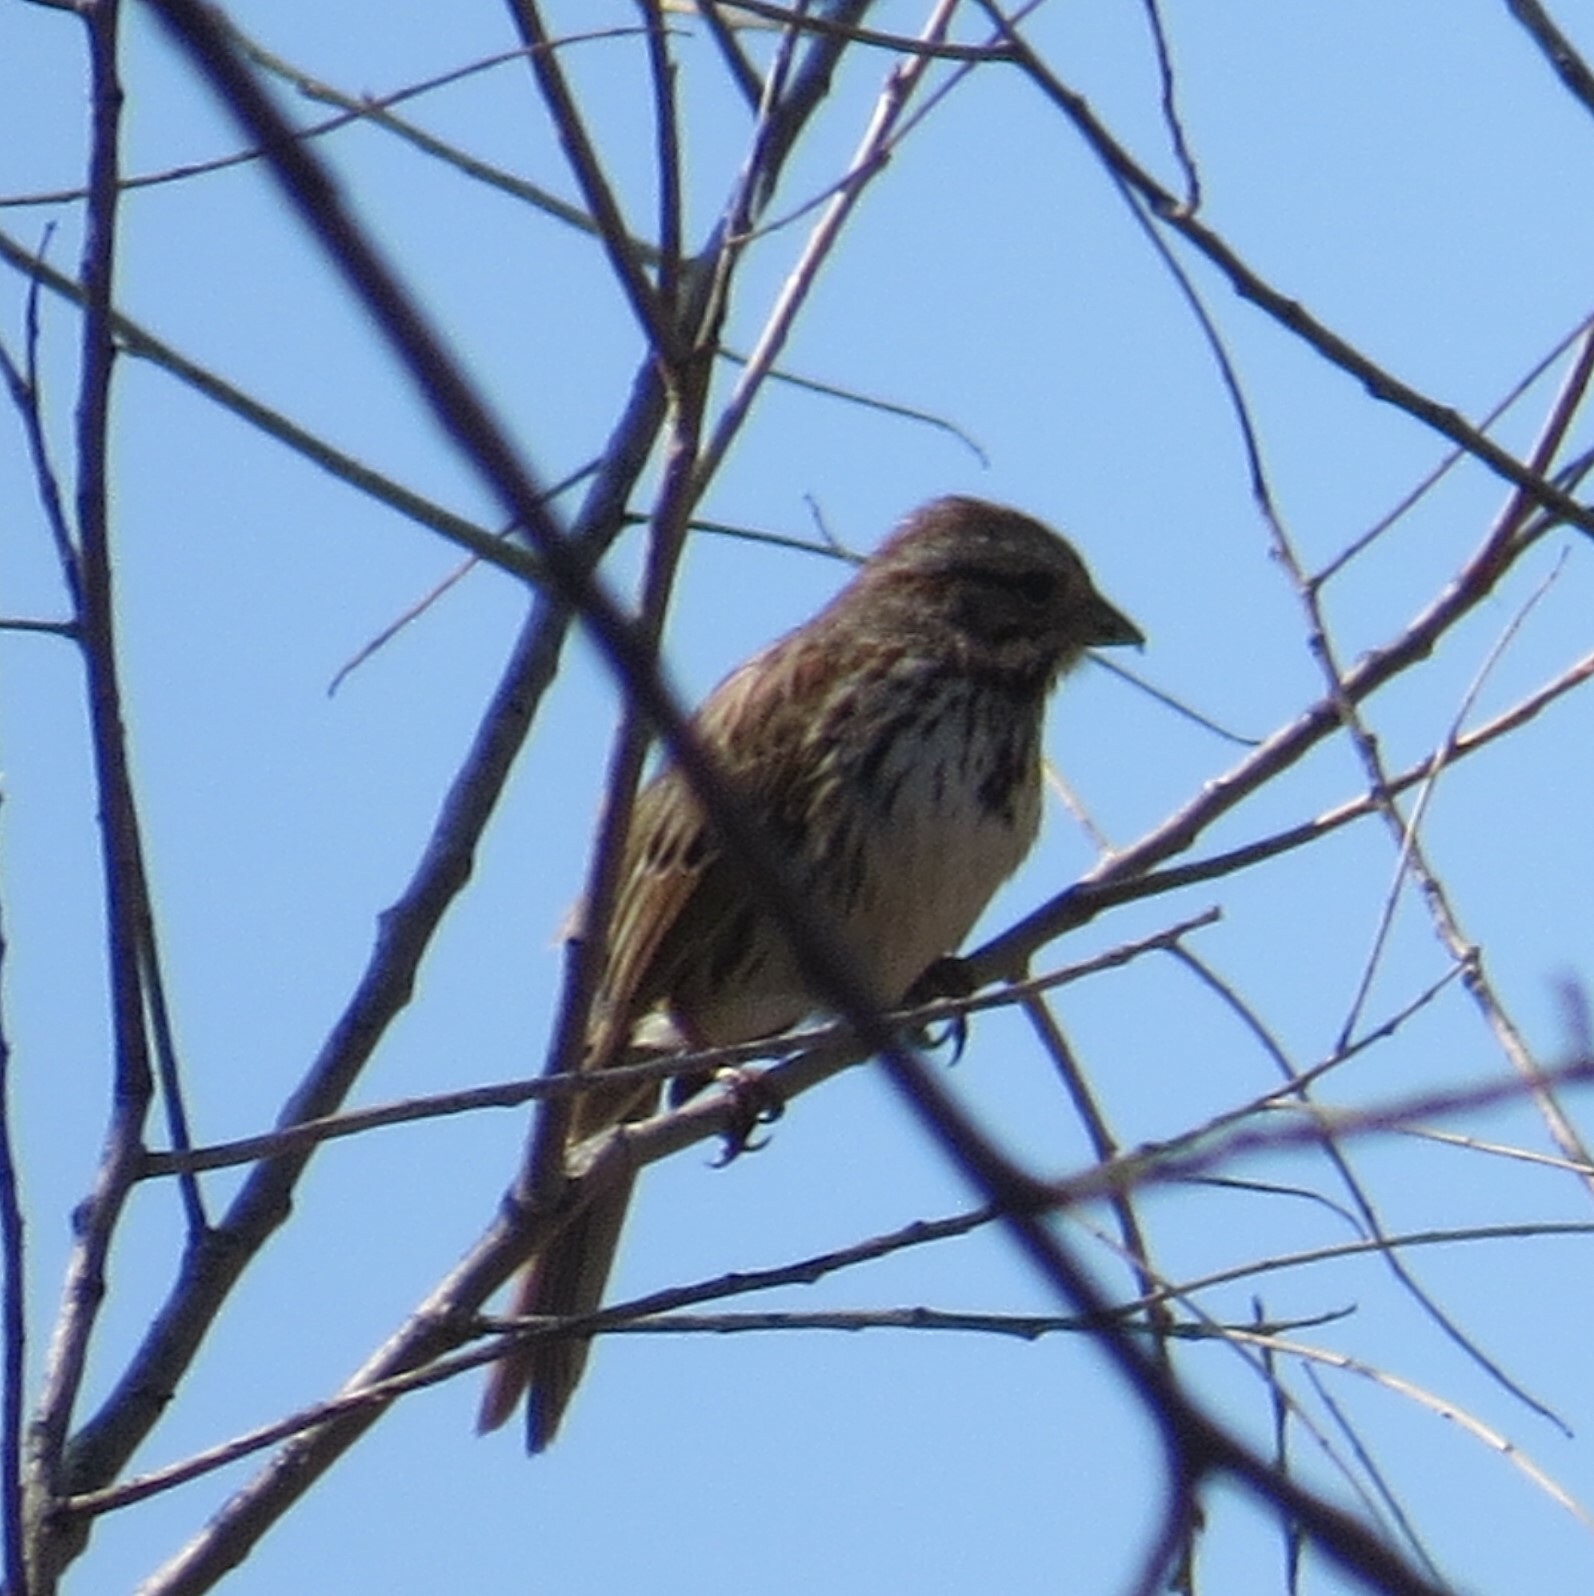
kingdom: Animalia
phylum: Chordata
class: Aves
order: Passeriformes
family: Passerellidae
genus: Melospiza
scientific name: Melospiza melodia
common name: Song sparrow
